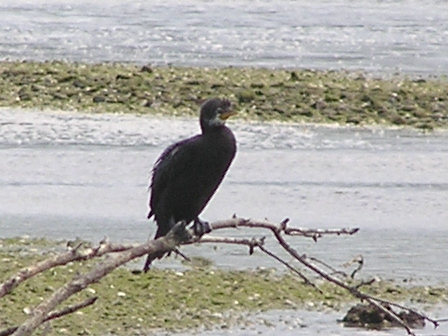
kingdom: Animalia
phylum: Chordata
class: Aves
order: Suliformes
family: Phalacrocoracidae
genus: Microcarbo
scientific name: Microcarbo melanoleucos
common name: Little pied cormorant
